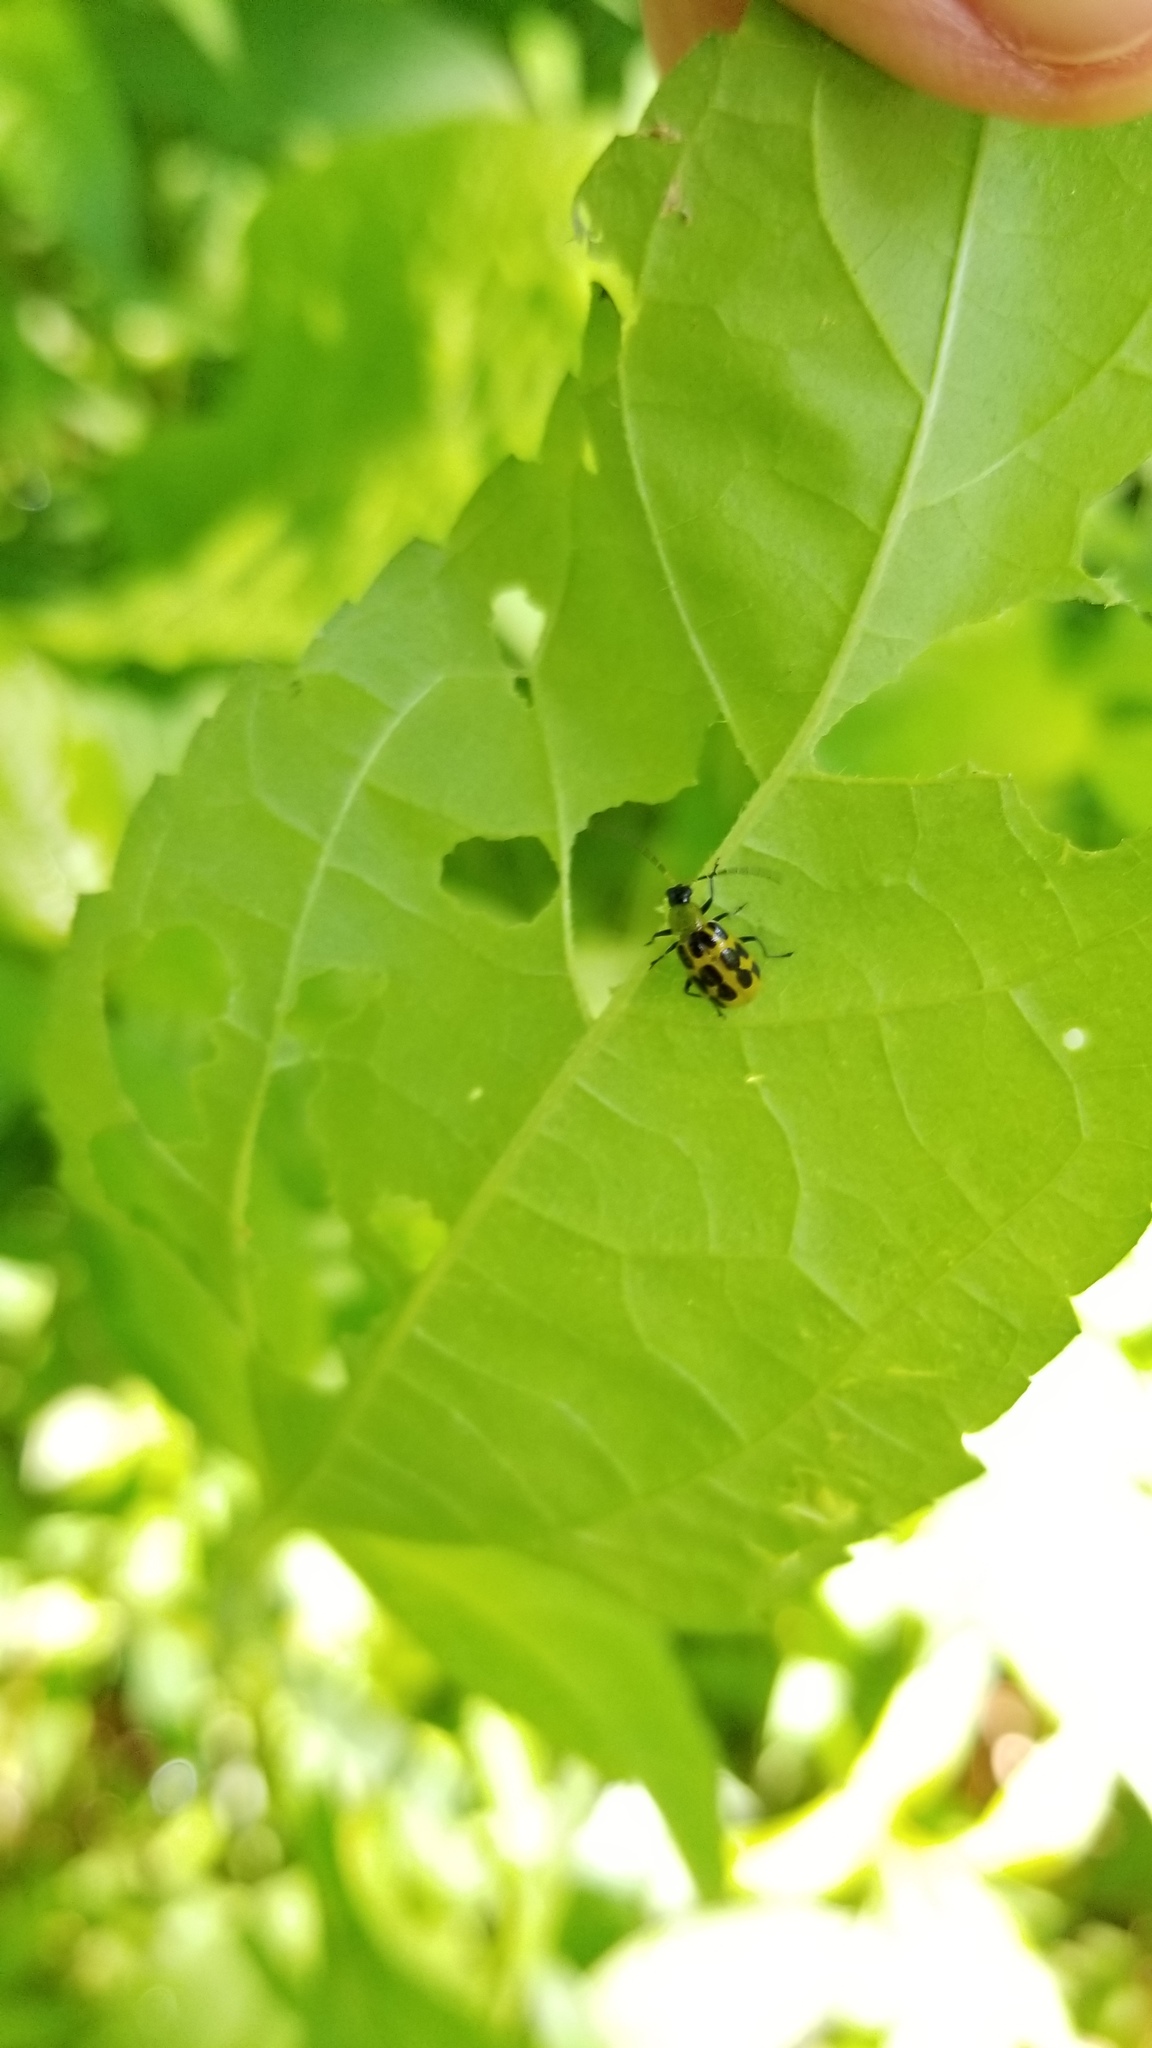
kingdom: Animalia
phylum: Arthropoda
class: Insecta
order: Coleoptera
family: Chrysomelidae
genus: Diabrotica
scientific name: Diabrotica undecimpunctata
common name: Spotted cucumber beetle
